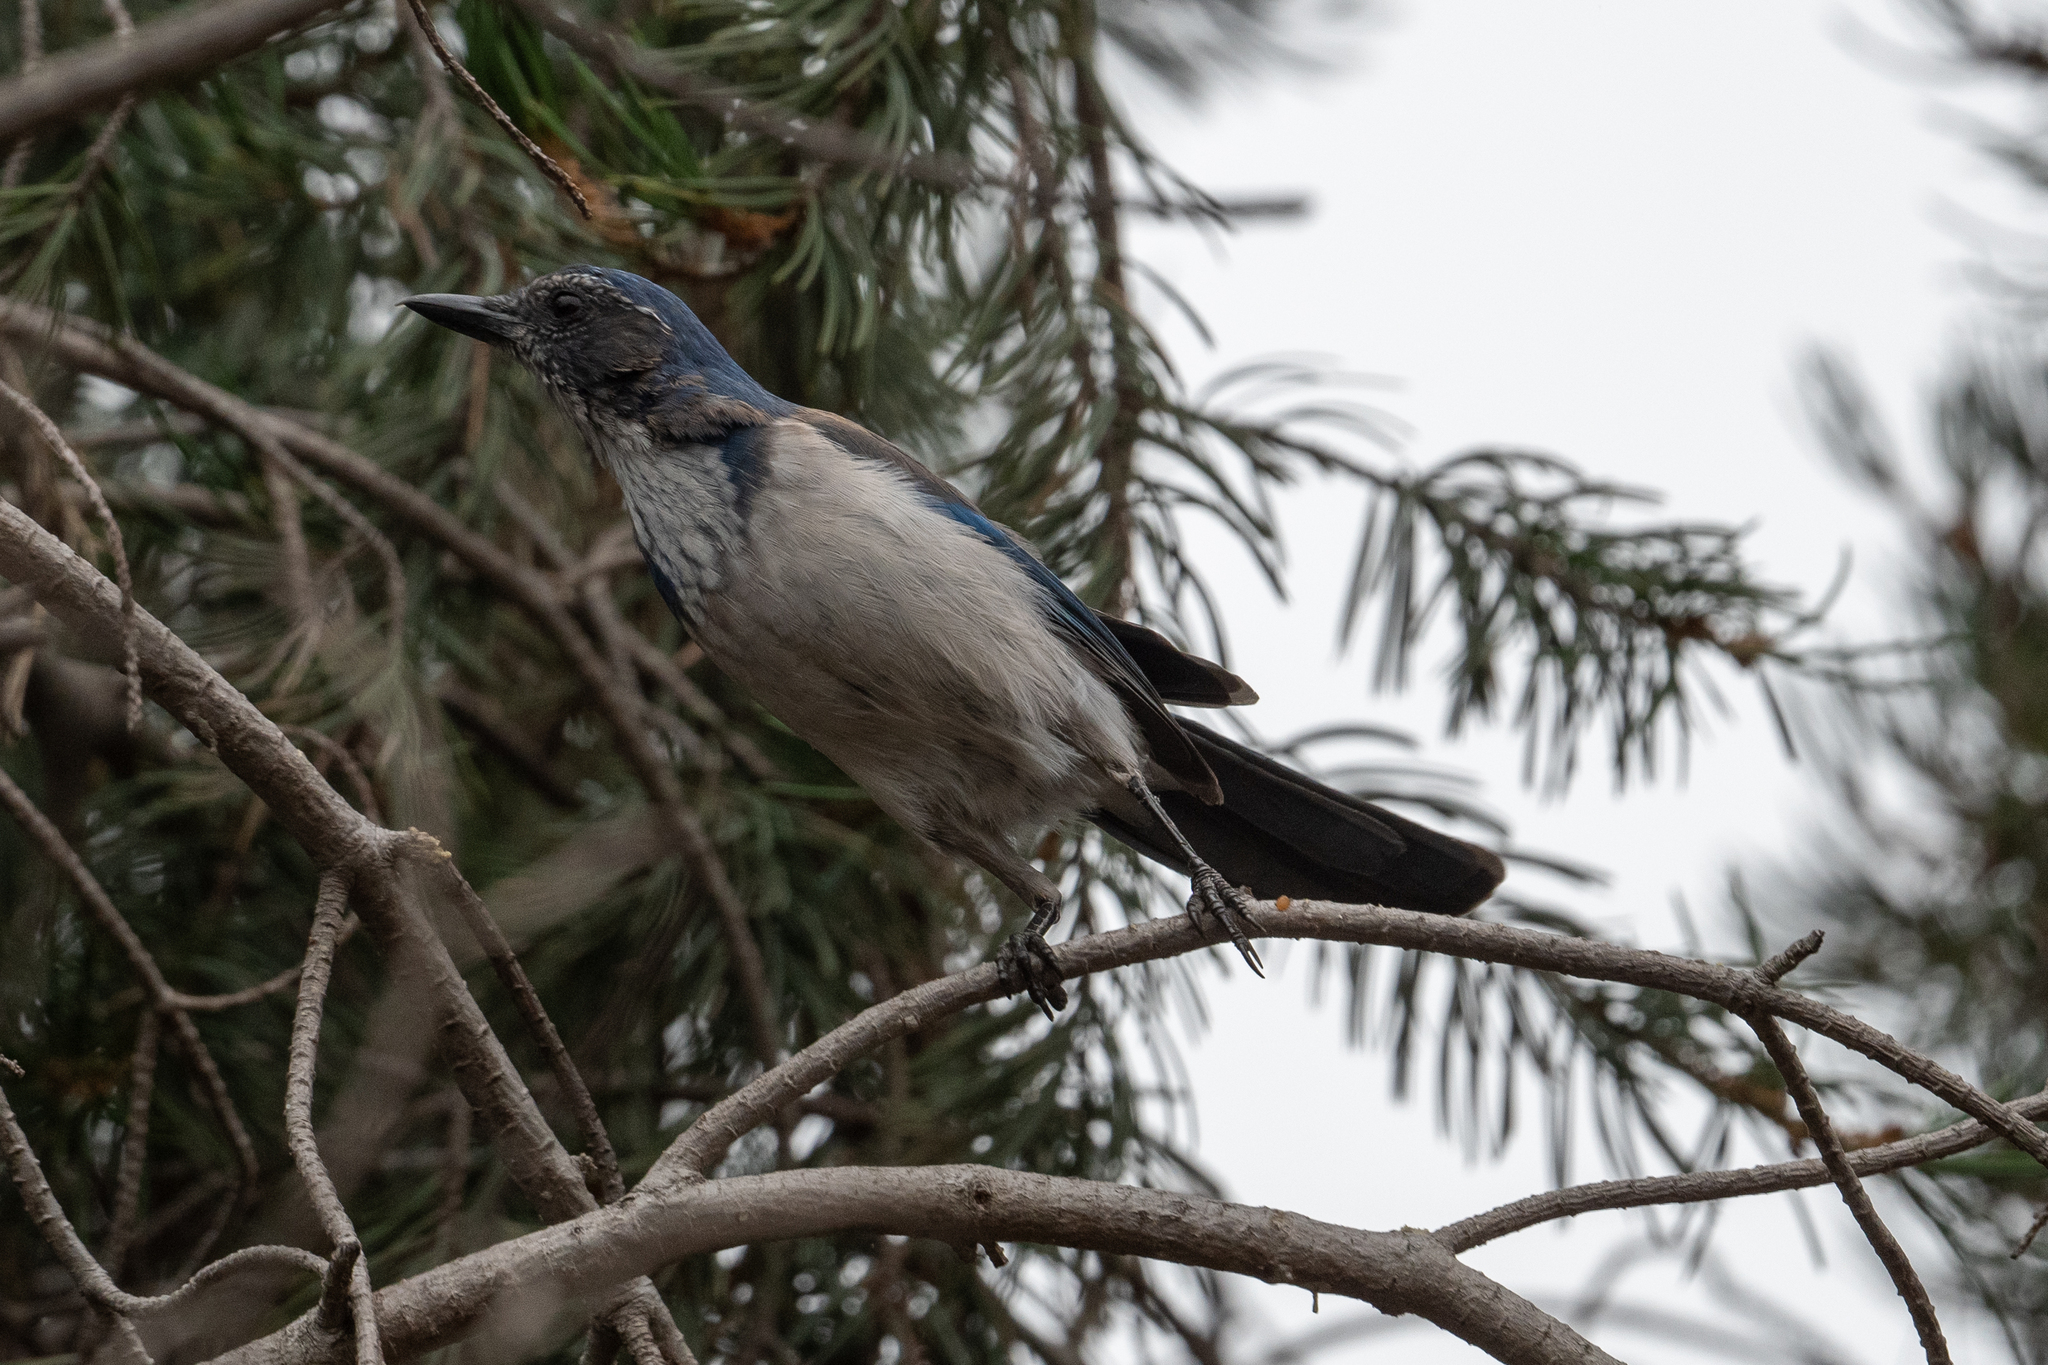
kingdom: Animalia
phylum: Chordata
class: Aves
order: Passeriformes
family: Corvidae
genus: Aphelocoma
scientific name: Aphelocoma californica
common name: California scrub-jay
